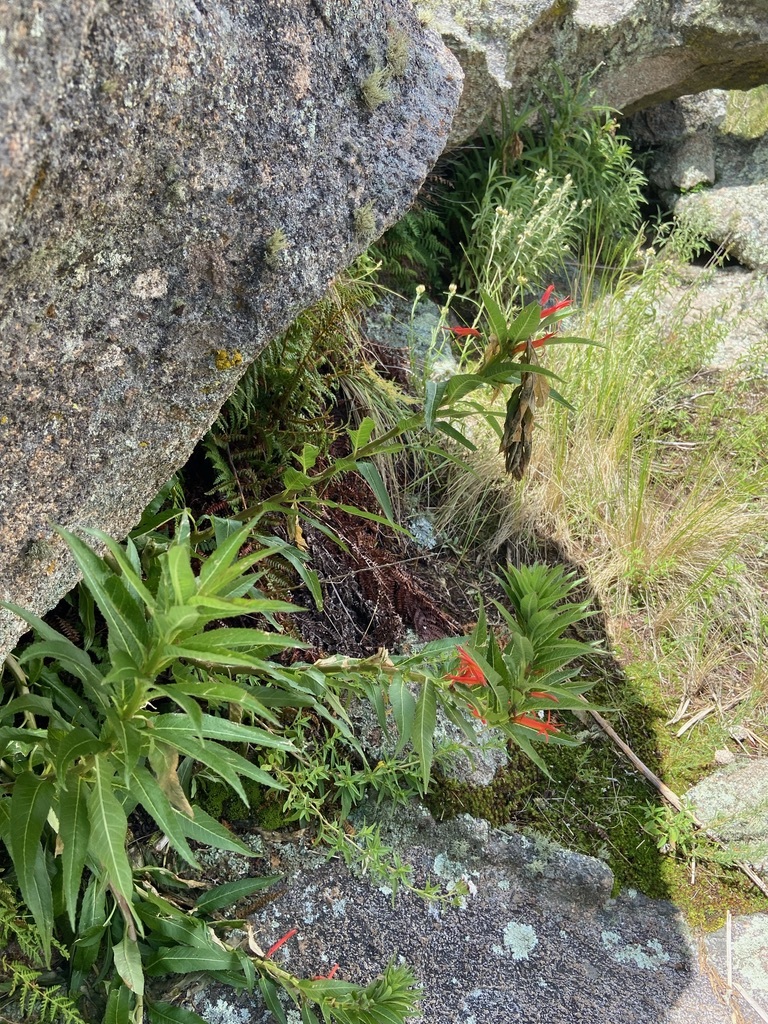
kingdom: Plantae
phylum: Tracheophyta
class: Magnoliopsida
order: Asterales
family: Campanulaceae
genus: Siphocampylus
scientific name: Siphocampylus foliosus
